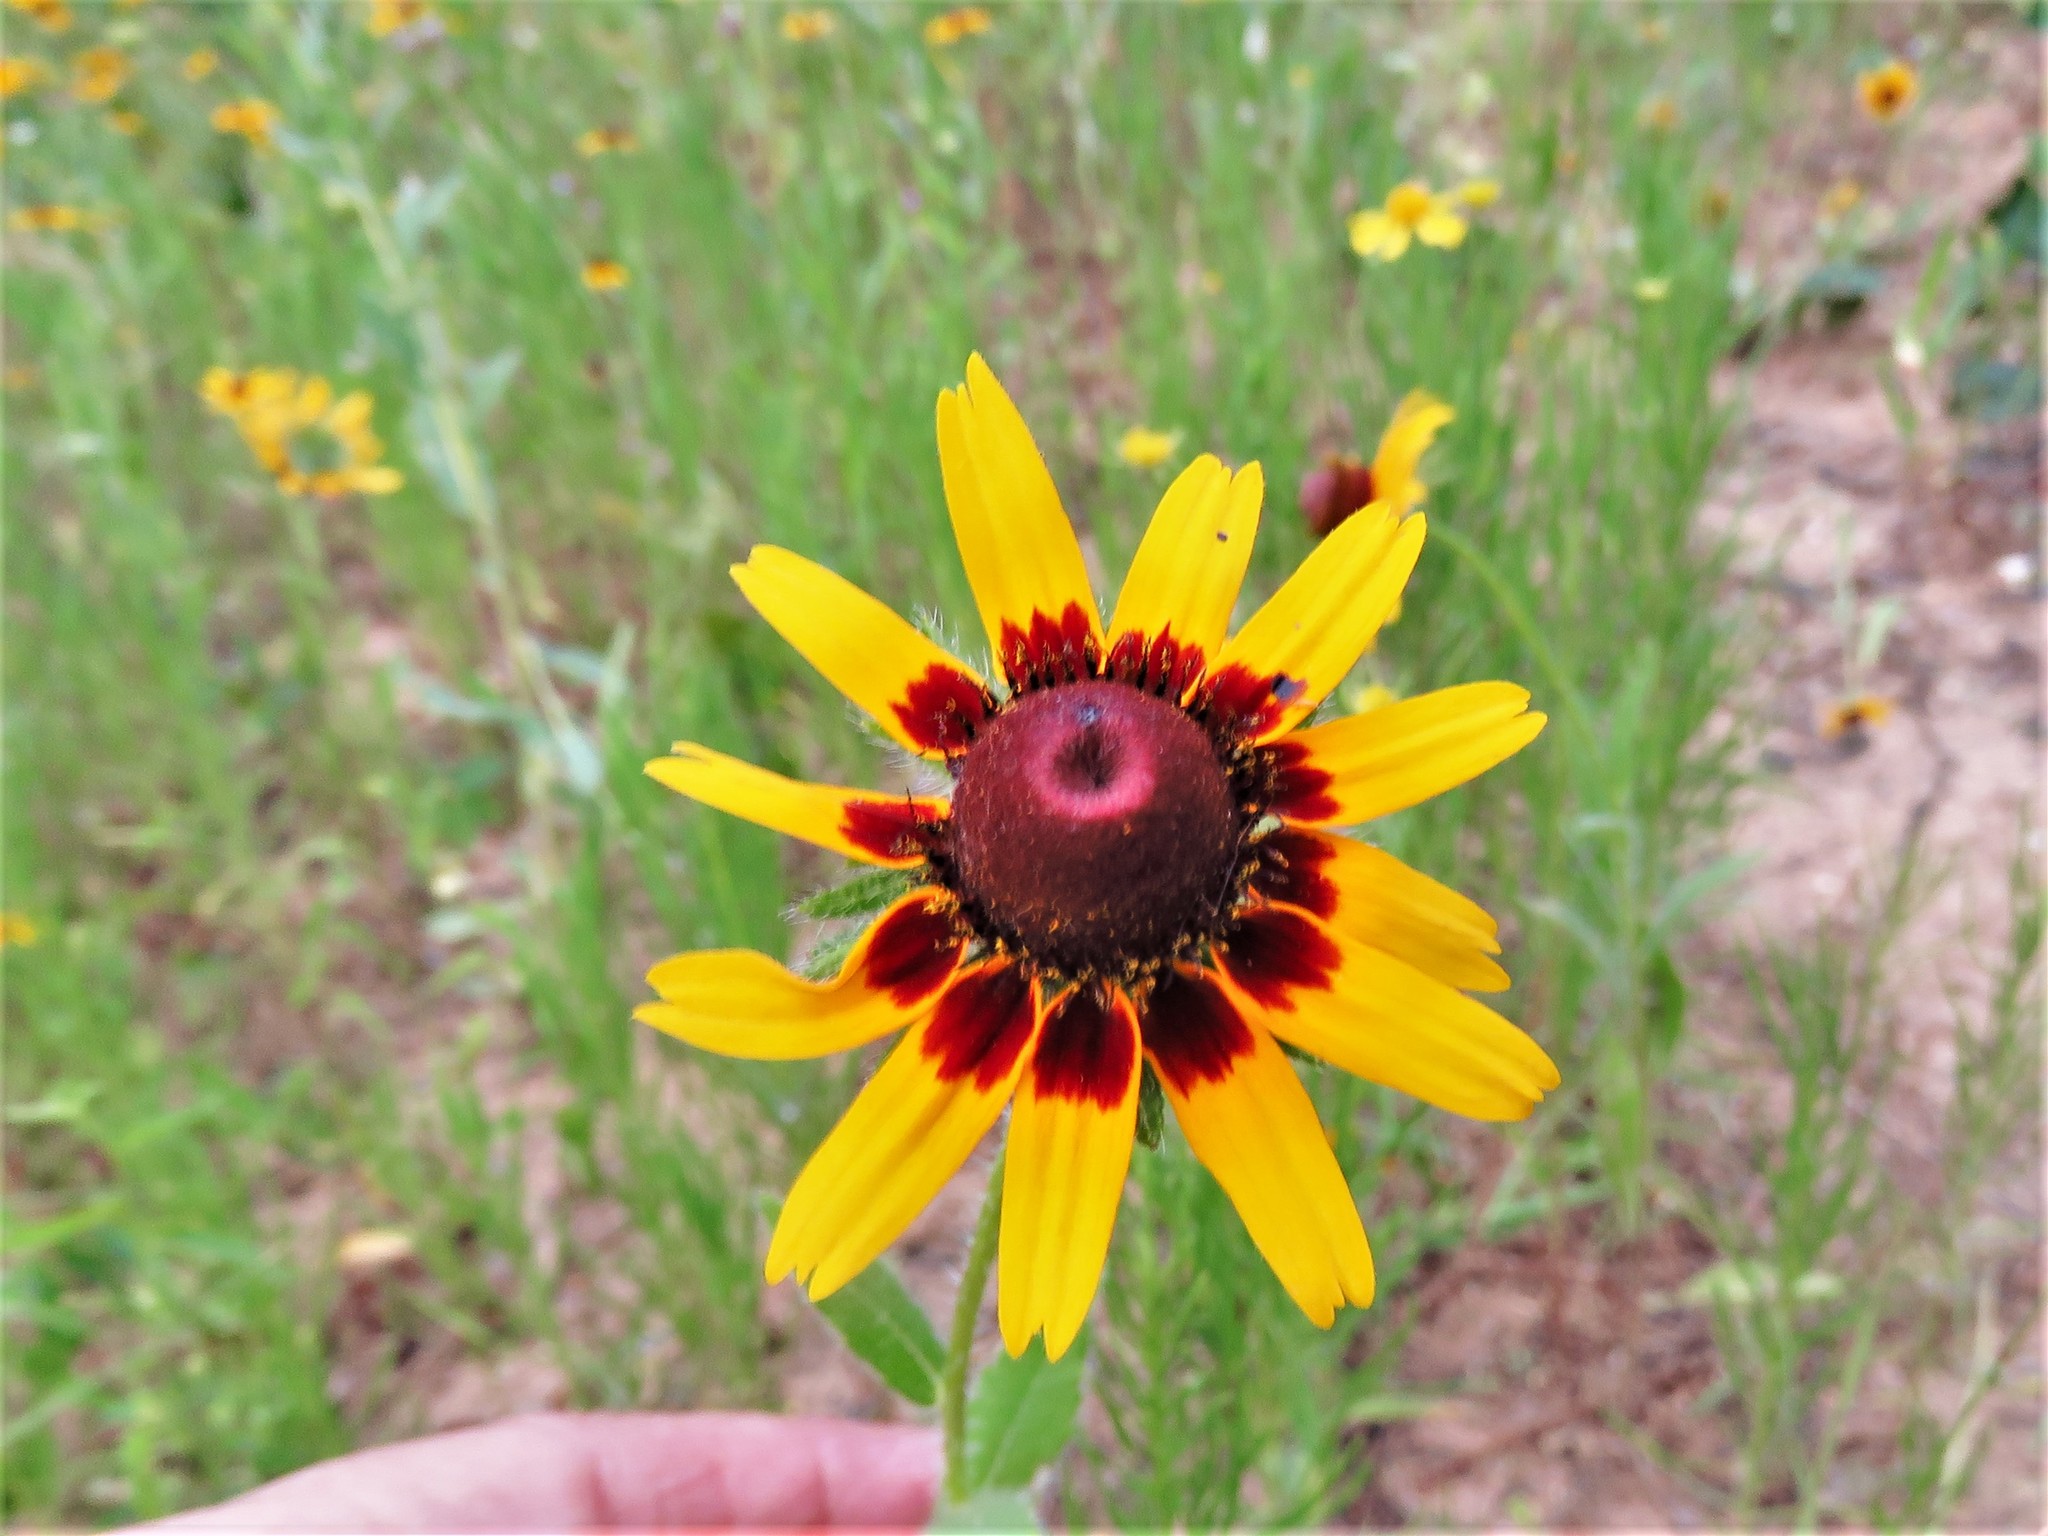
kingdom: Plantae
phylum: Tracheophyta
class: Magnoliopsida
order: Asterales
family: Asteraceae
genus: Rudbeckia
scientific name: Rudbeckia hirta
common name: Black-eyed-susan
